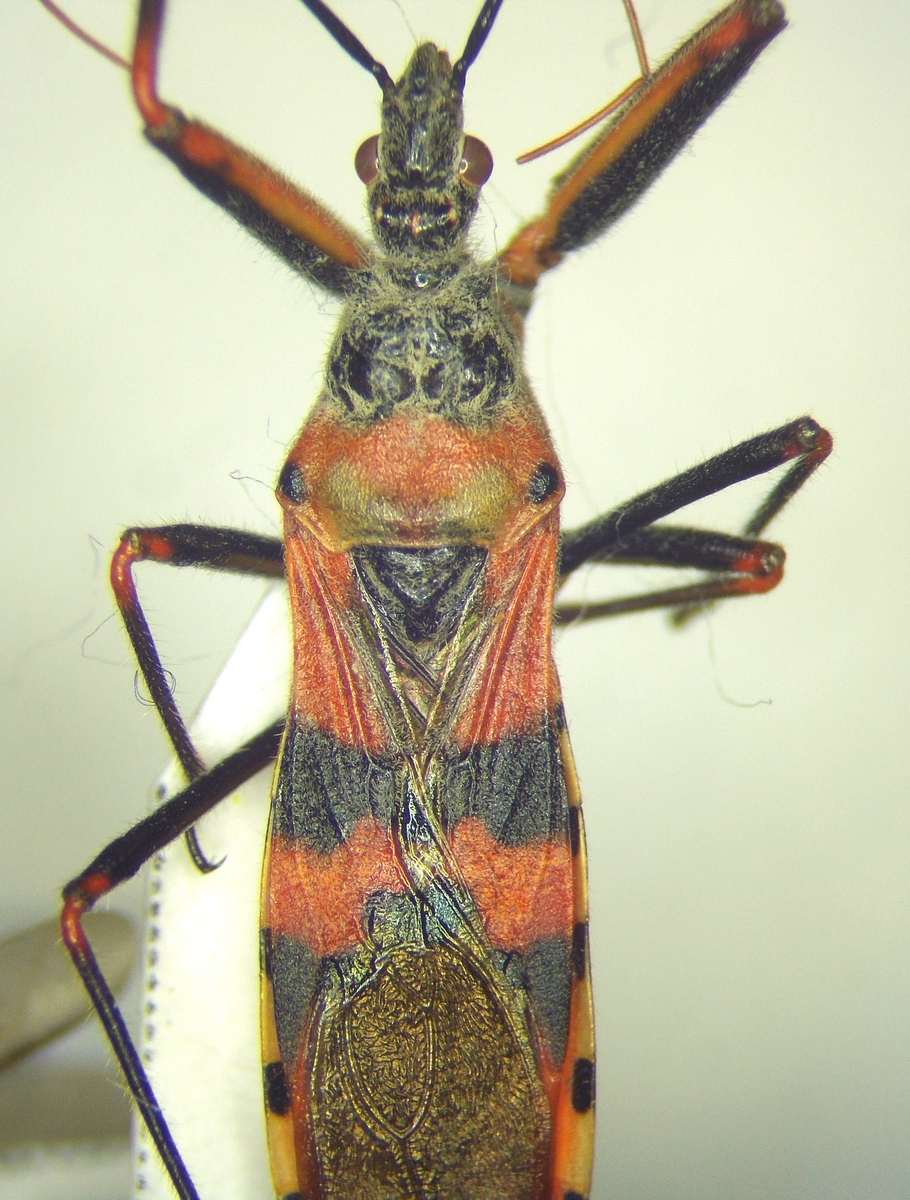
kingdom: Animalia
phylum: Arthropoda
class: Insecta
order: Hemiptera
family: Reduviidae
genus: Callistodema
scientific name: Callistodema fasciata
